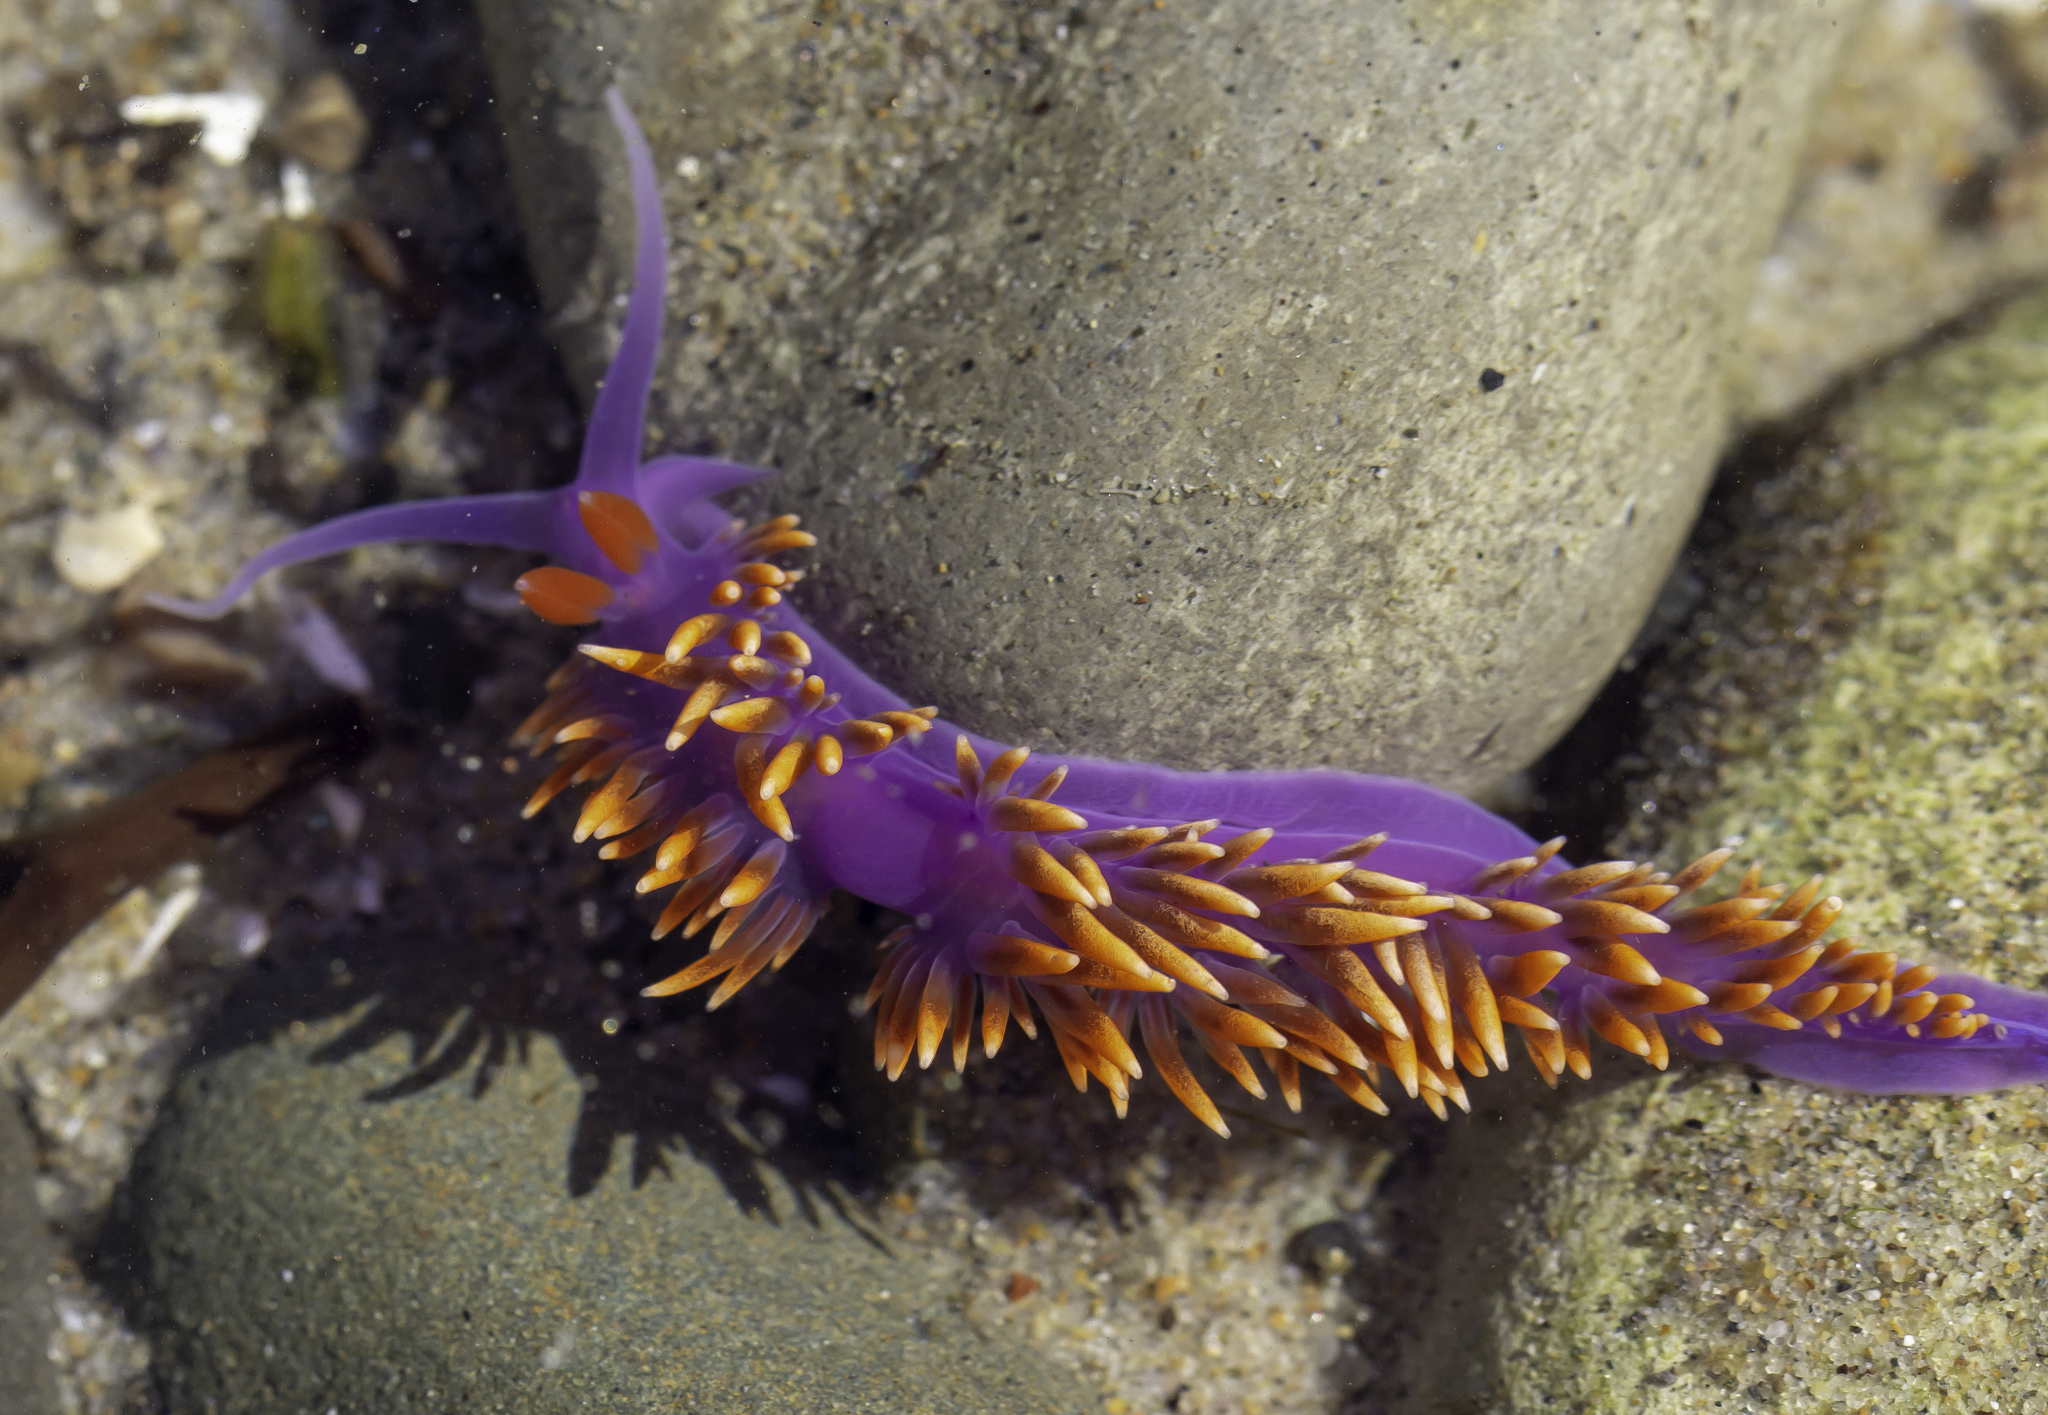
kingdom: Animalia
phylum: Mollusca
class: Gastropoda
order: Nudibranchia
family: Flabellinopsidae
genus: Flabellinopsis
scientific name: Flabellinopsis iodinea
